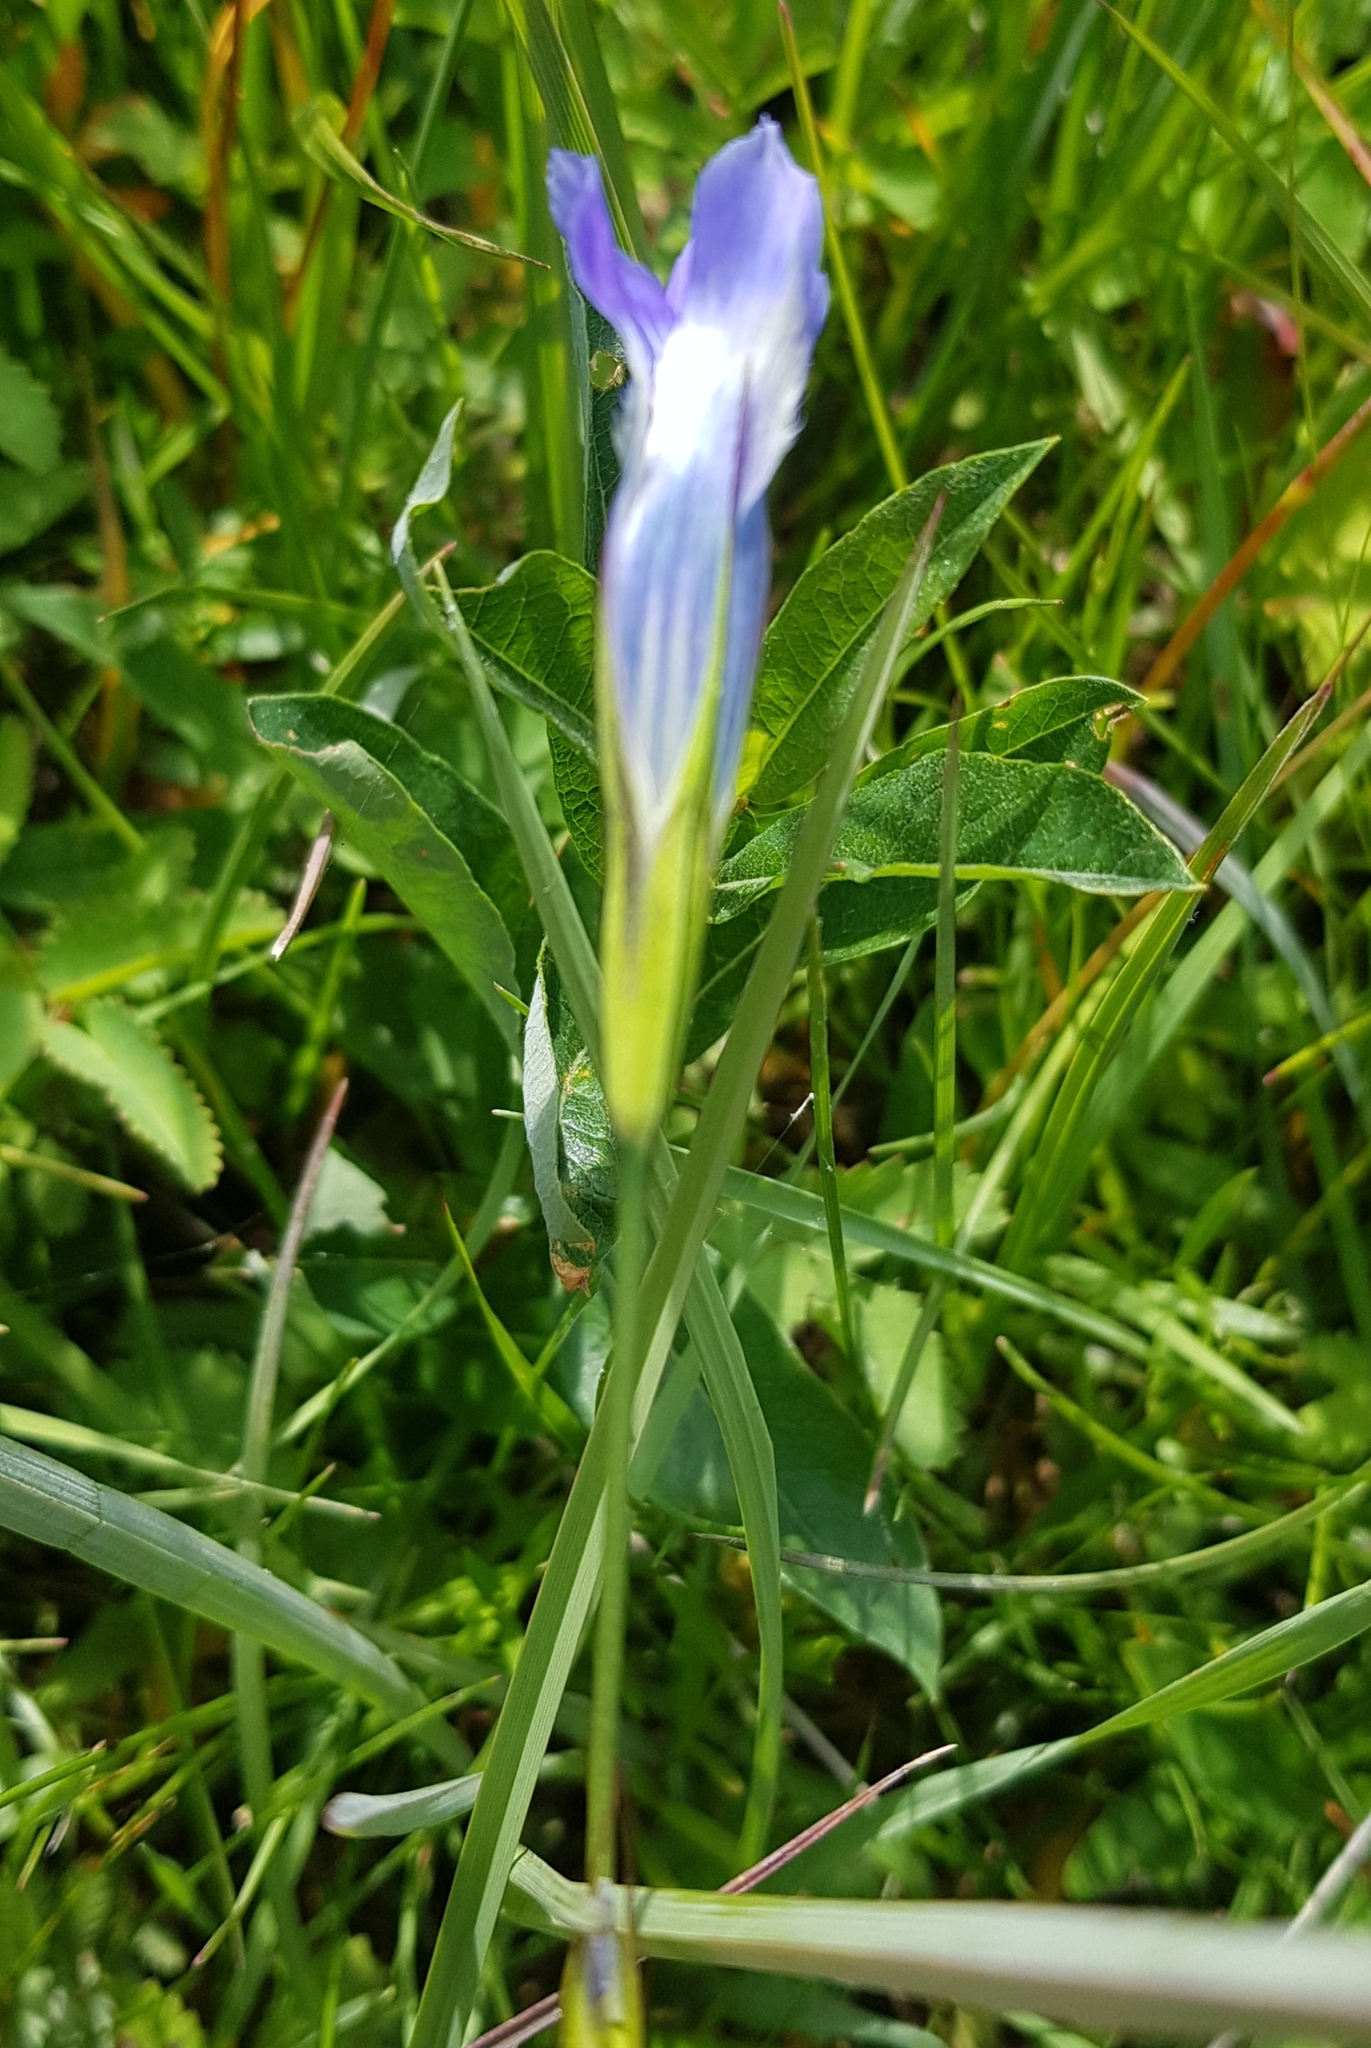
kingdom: Plantae
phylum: Tracheophyta
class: Magnoliopsida
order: Gentianales
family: Gentianaceae
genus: Gentianopsis
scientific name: Gentianopsis barbata
